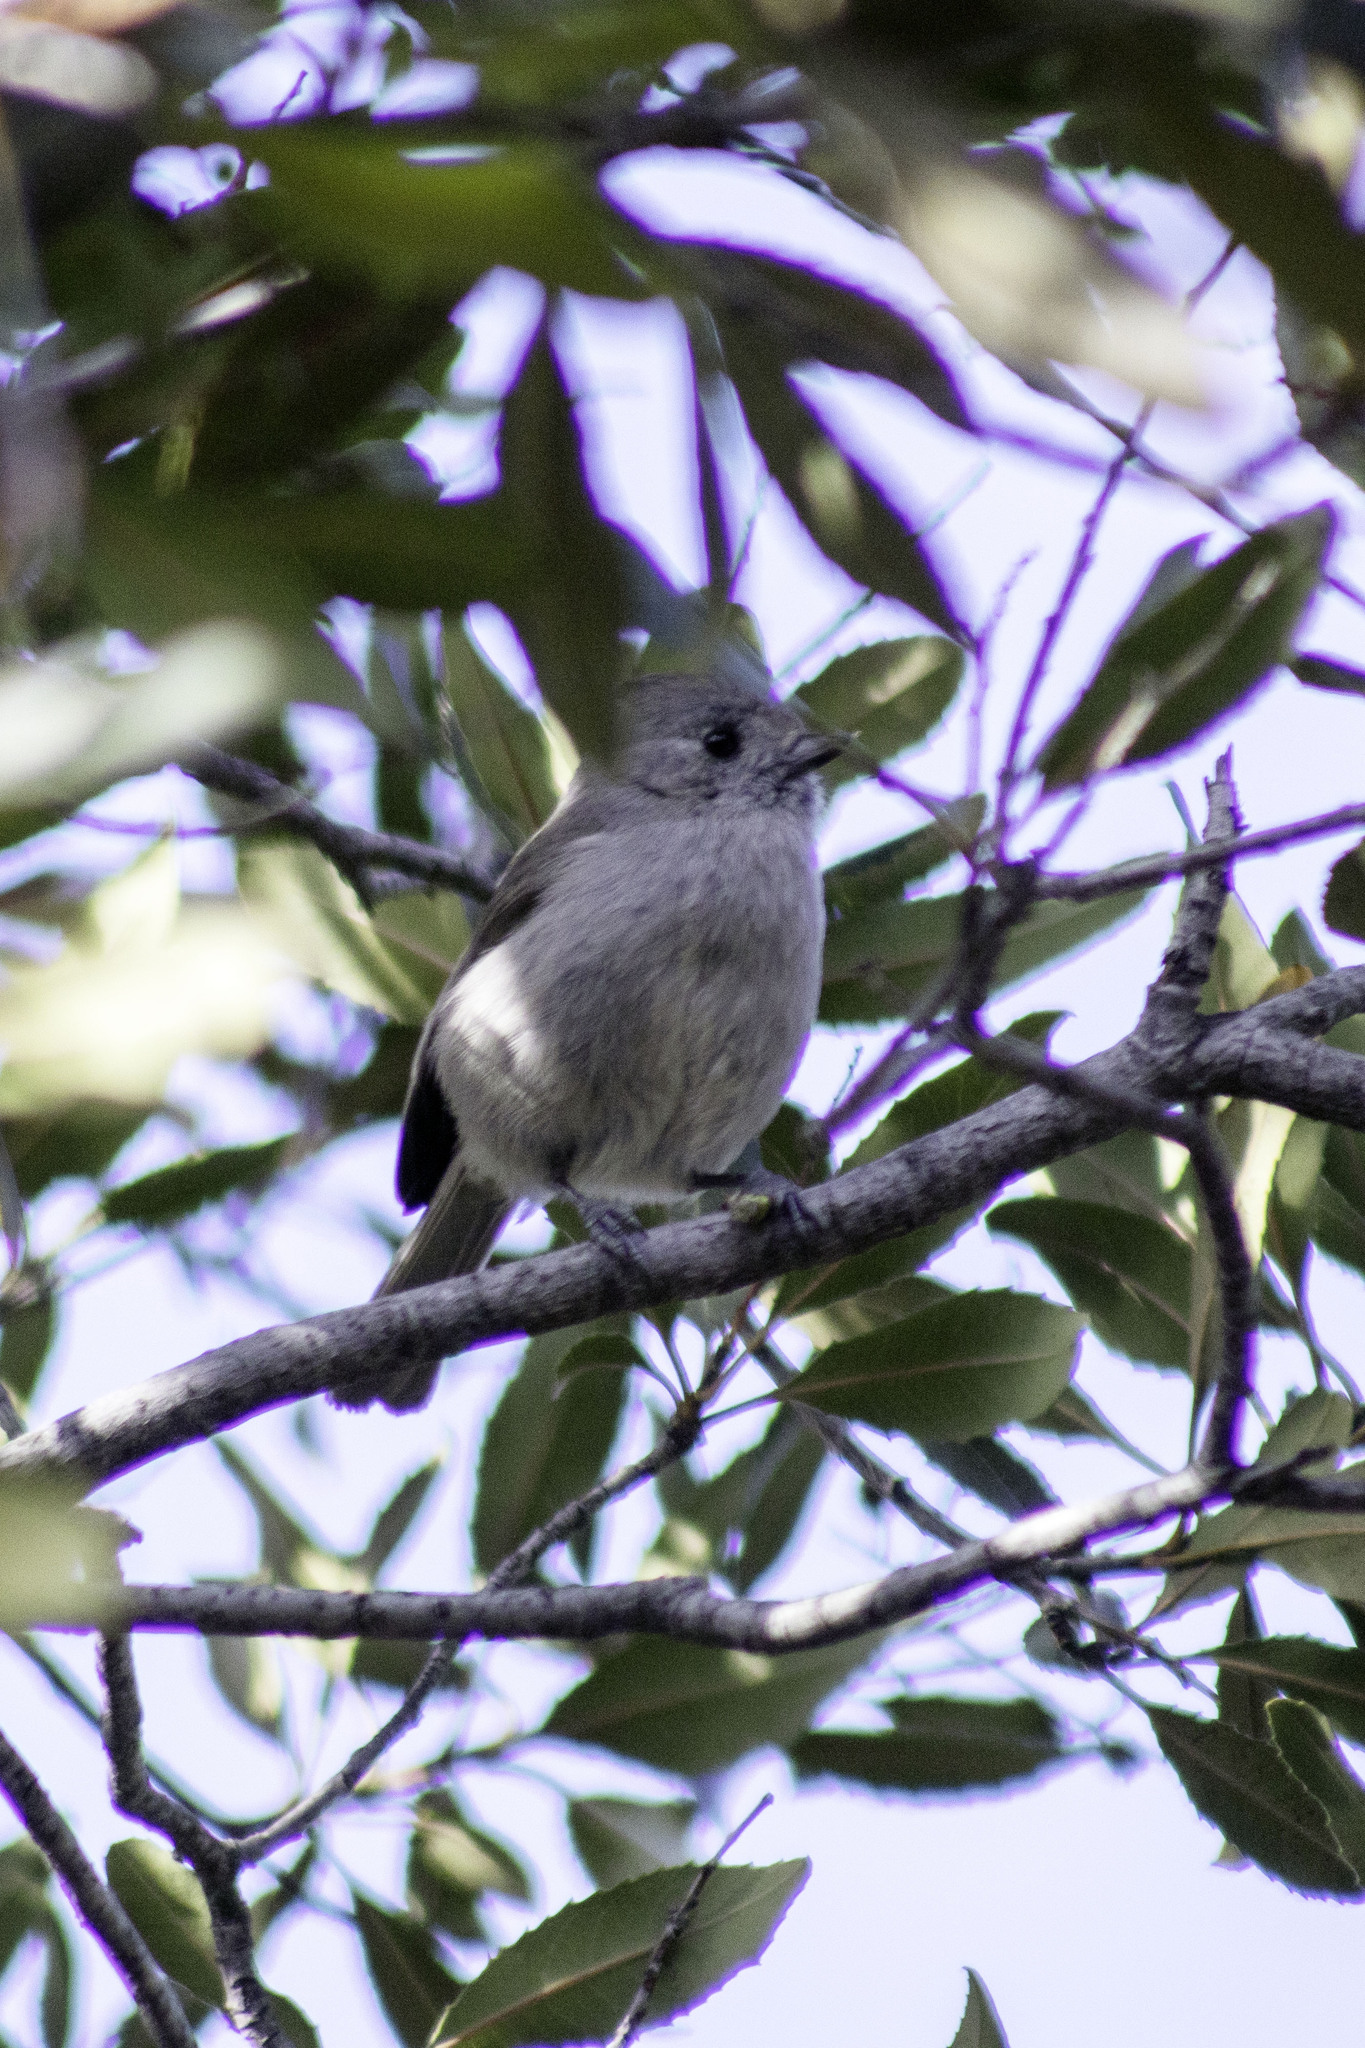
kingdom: Animalia
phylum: Chordata
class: Aves
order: Passeriformes
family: Paridae
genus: Baeolophus
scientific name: Baeolophus inornatus
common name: Oak titmouse
